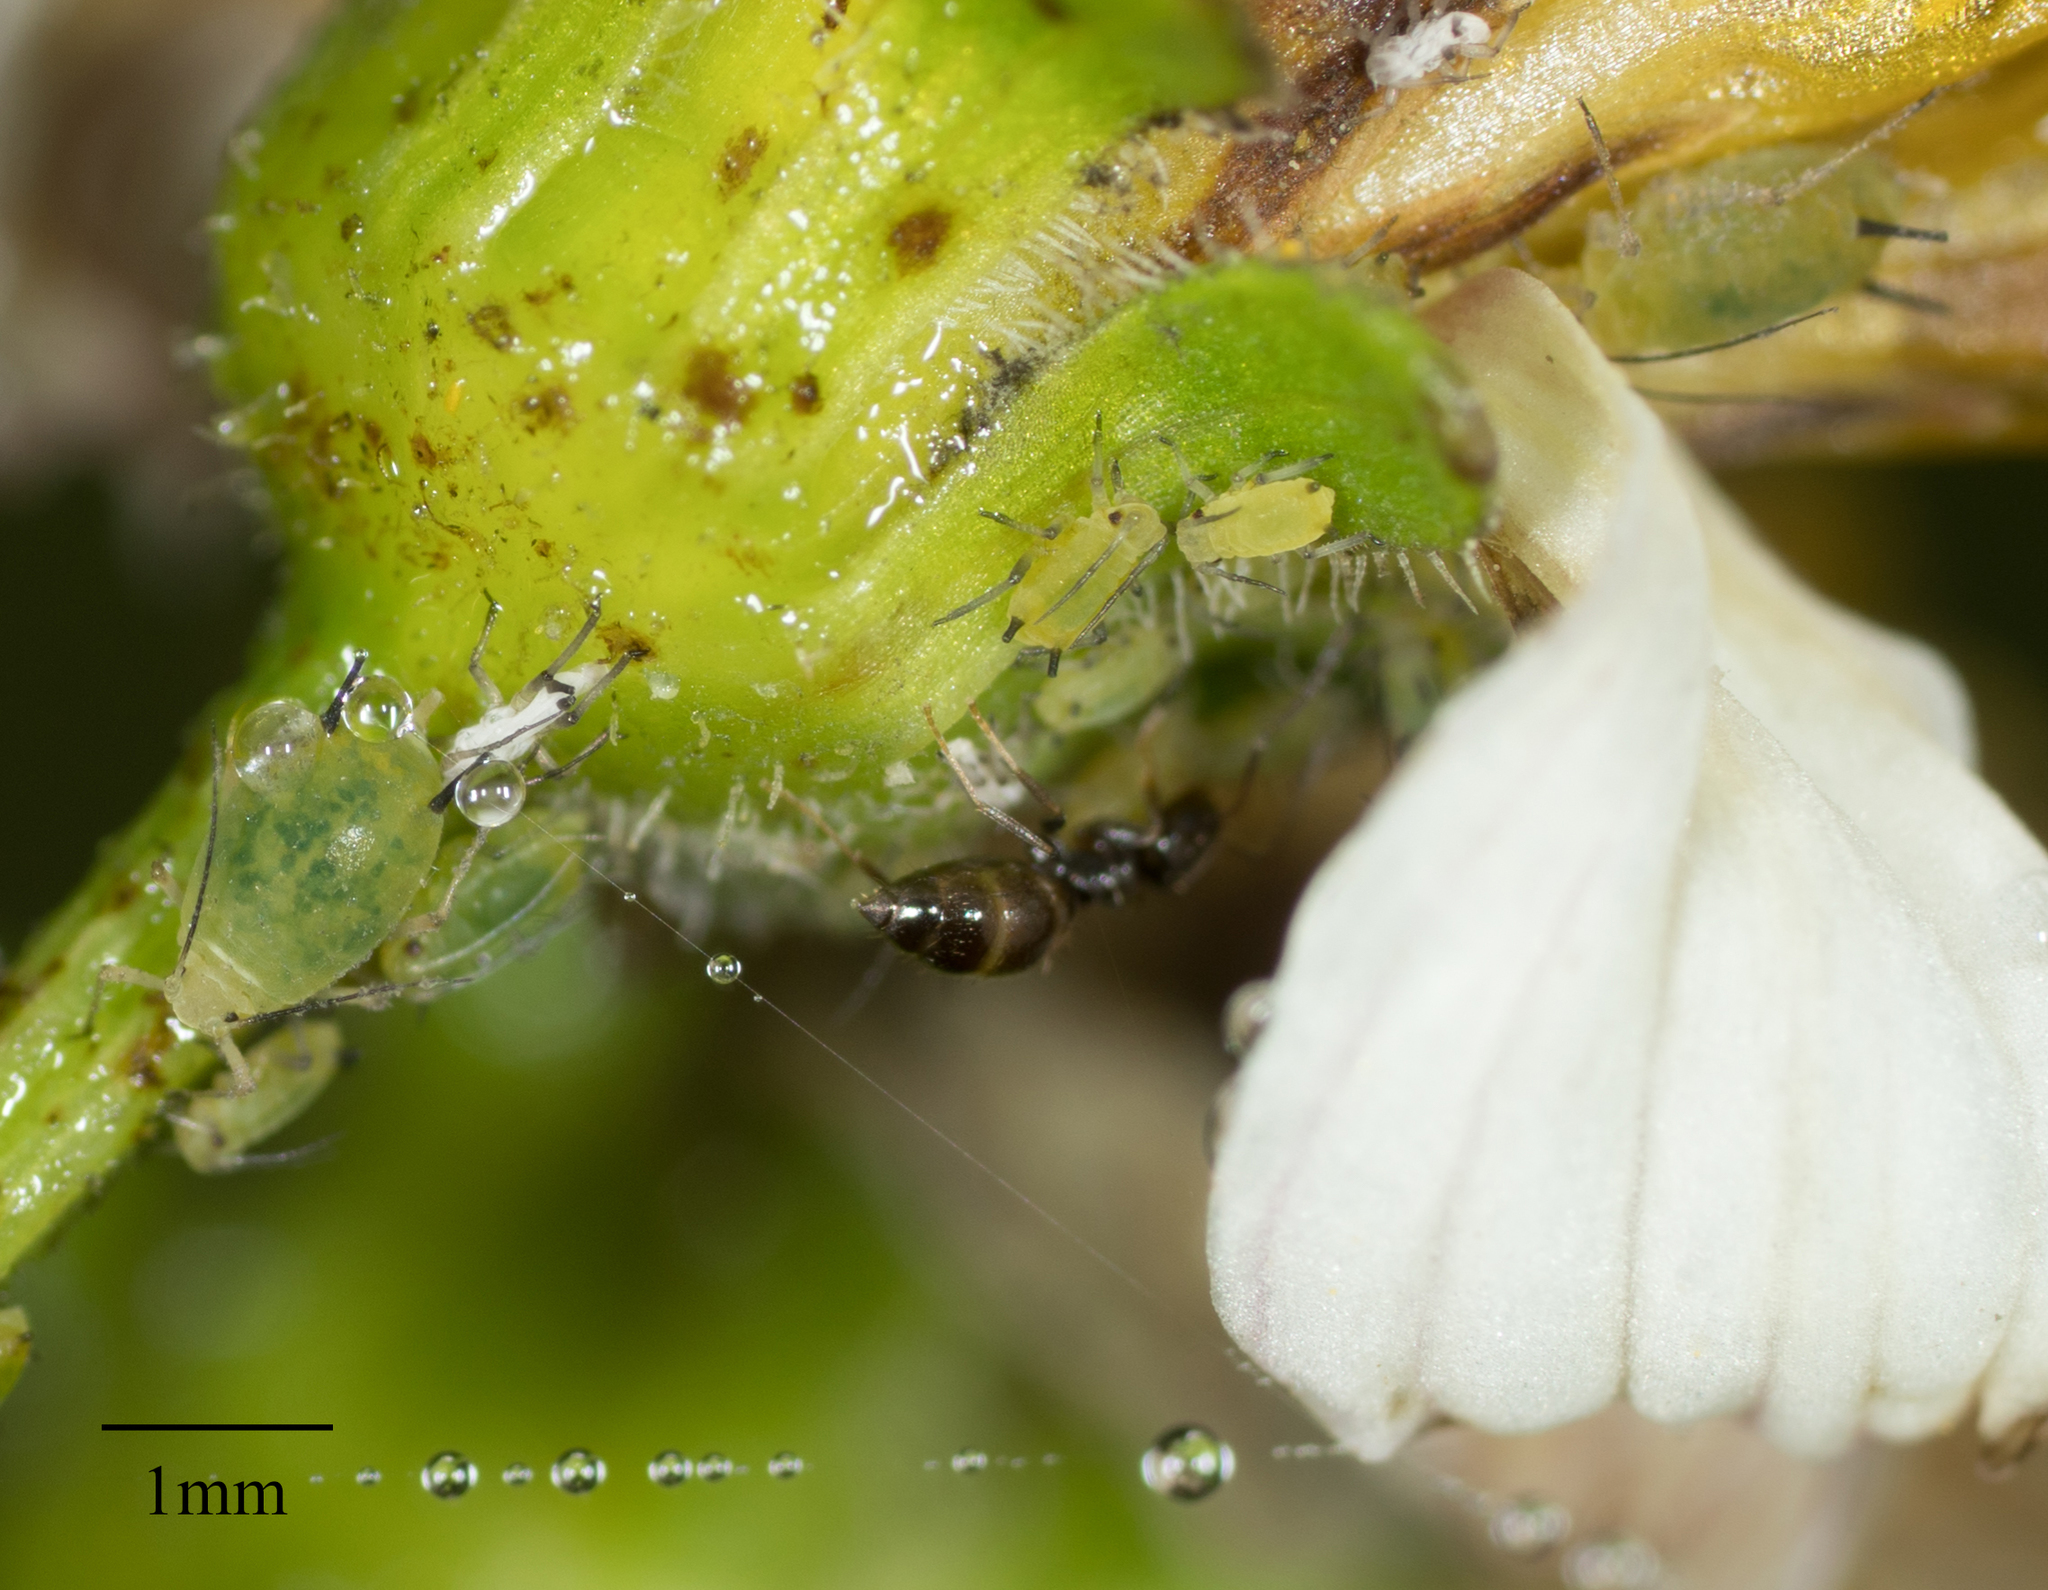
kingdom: Animalia
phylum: Arthropoda
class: Insecta
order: Hemiptera
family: Aphididae
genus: Aphis
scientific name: Aphis coreopsidis
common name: Aphid
